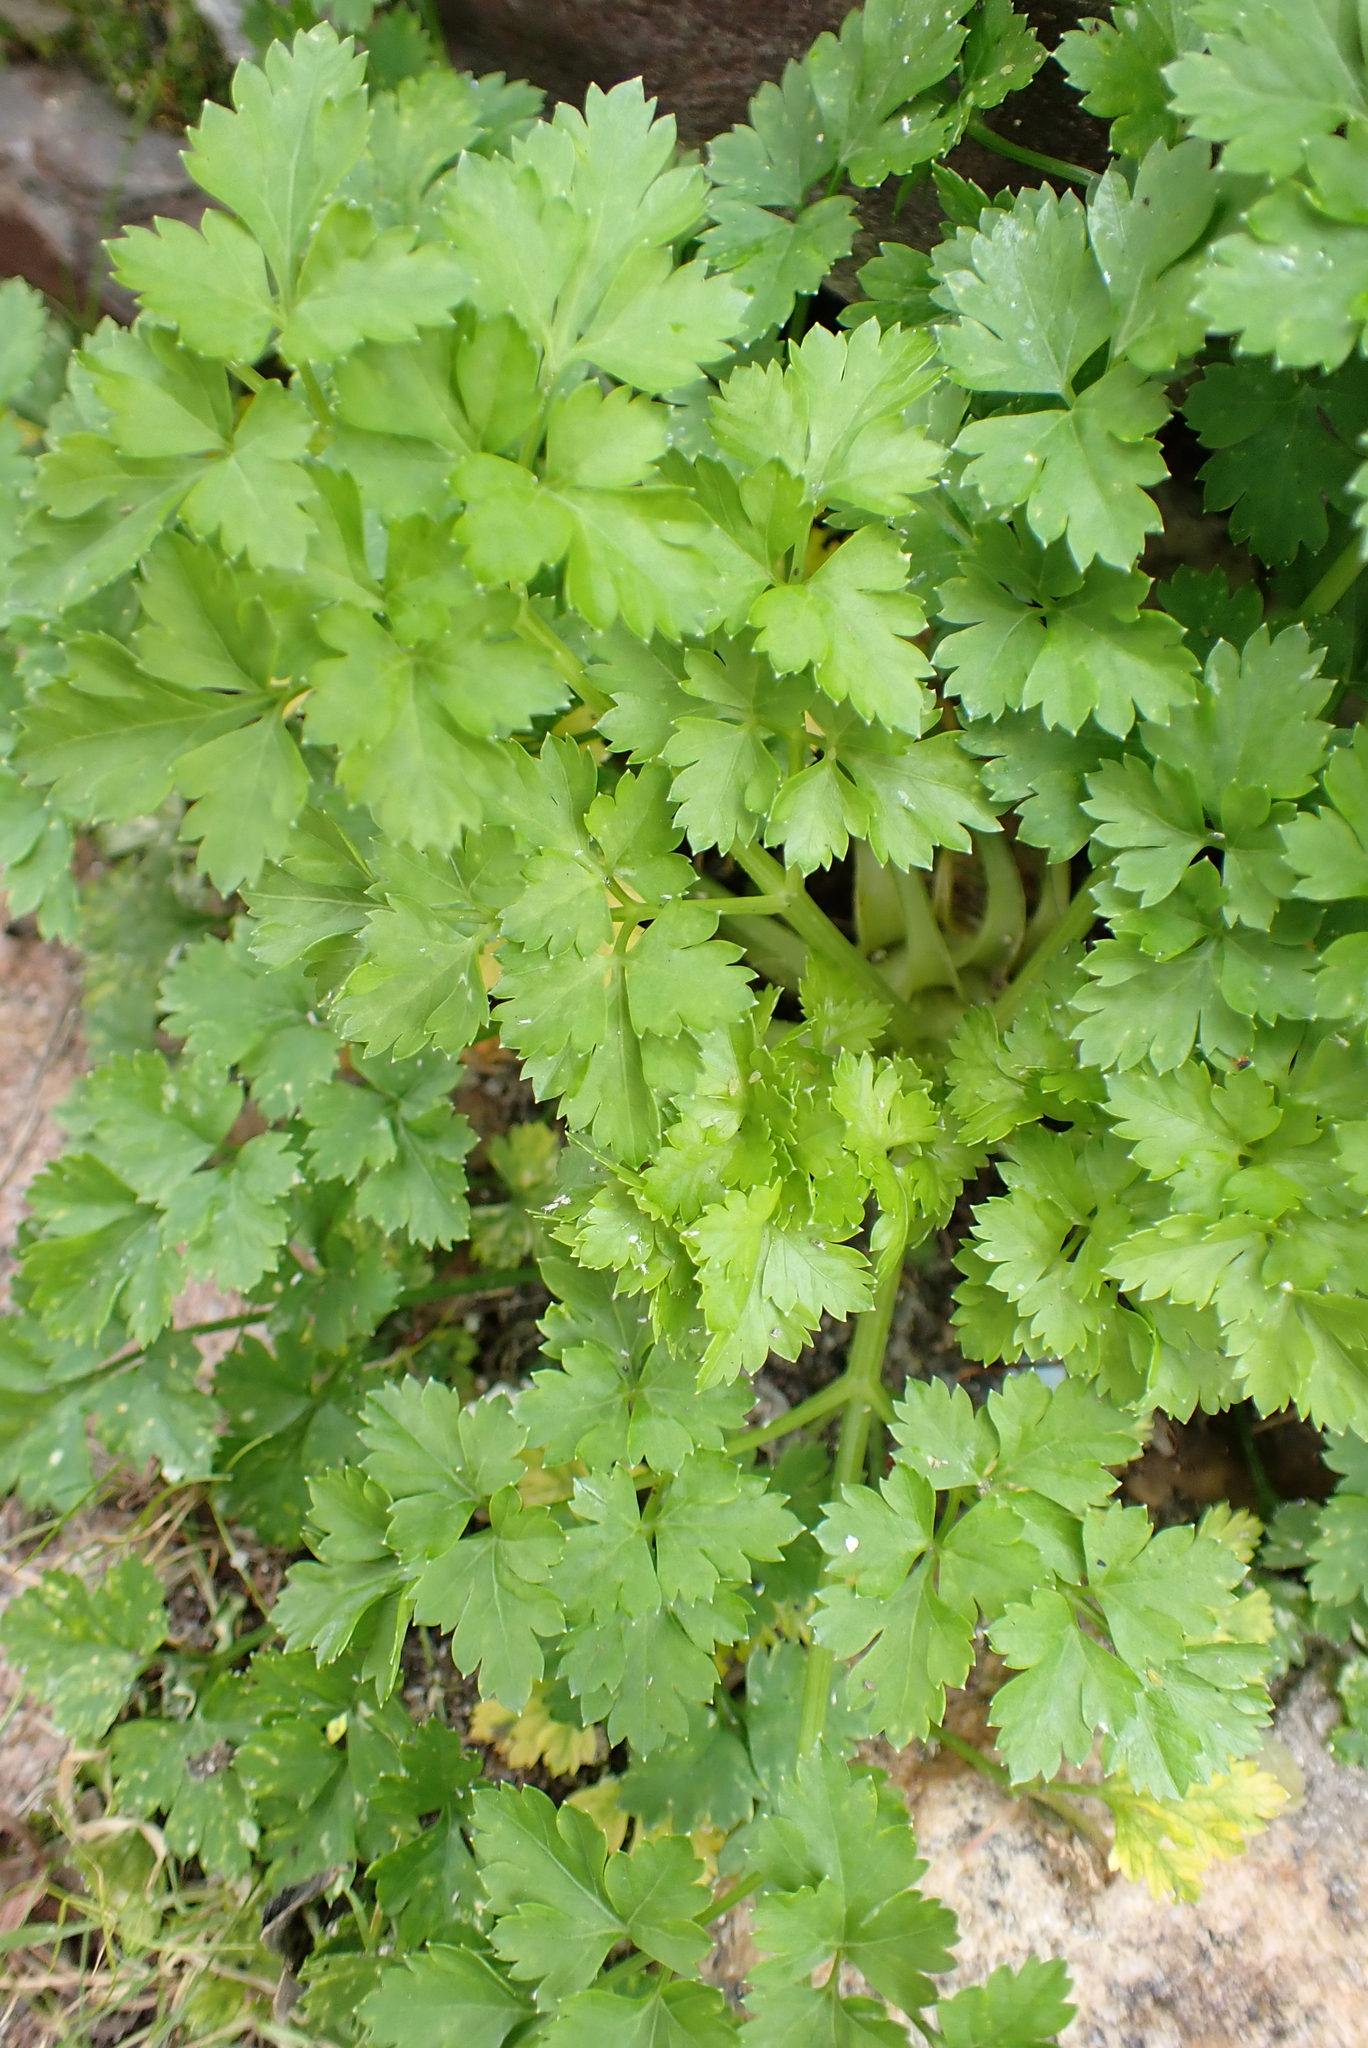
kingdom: Plantae
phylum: Tracheophyta
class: Magnoliopsida
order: Apiales
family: Apiaceae
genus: Petroselinum
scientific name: Petroselinum crispum
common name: Parsley
